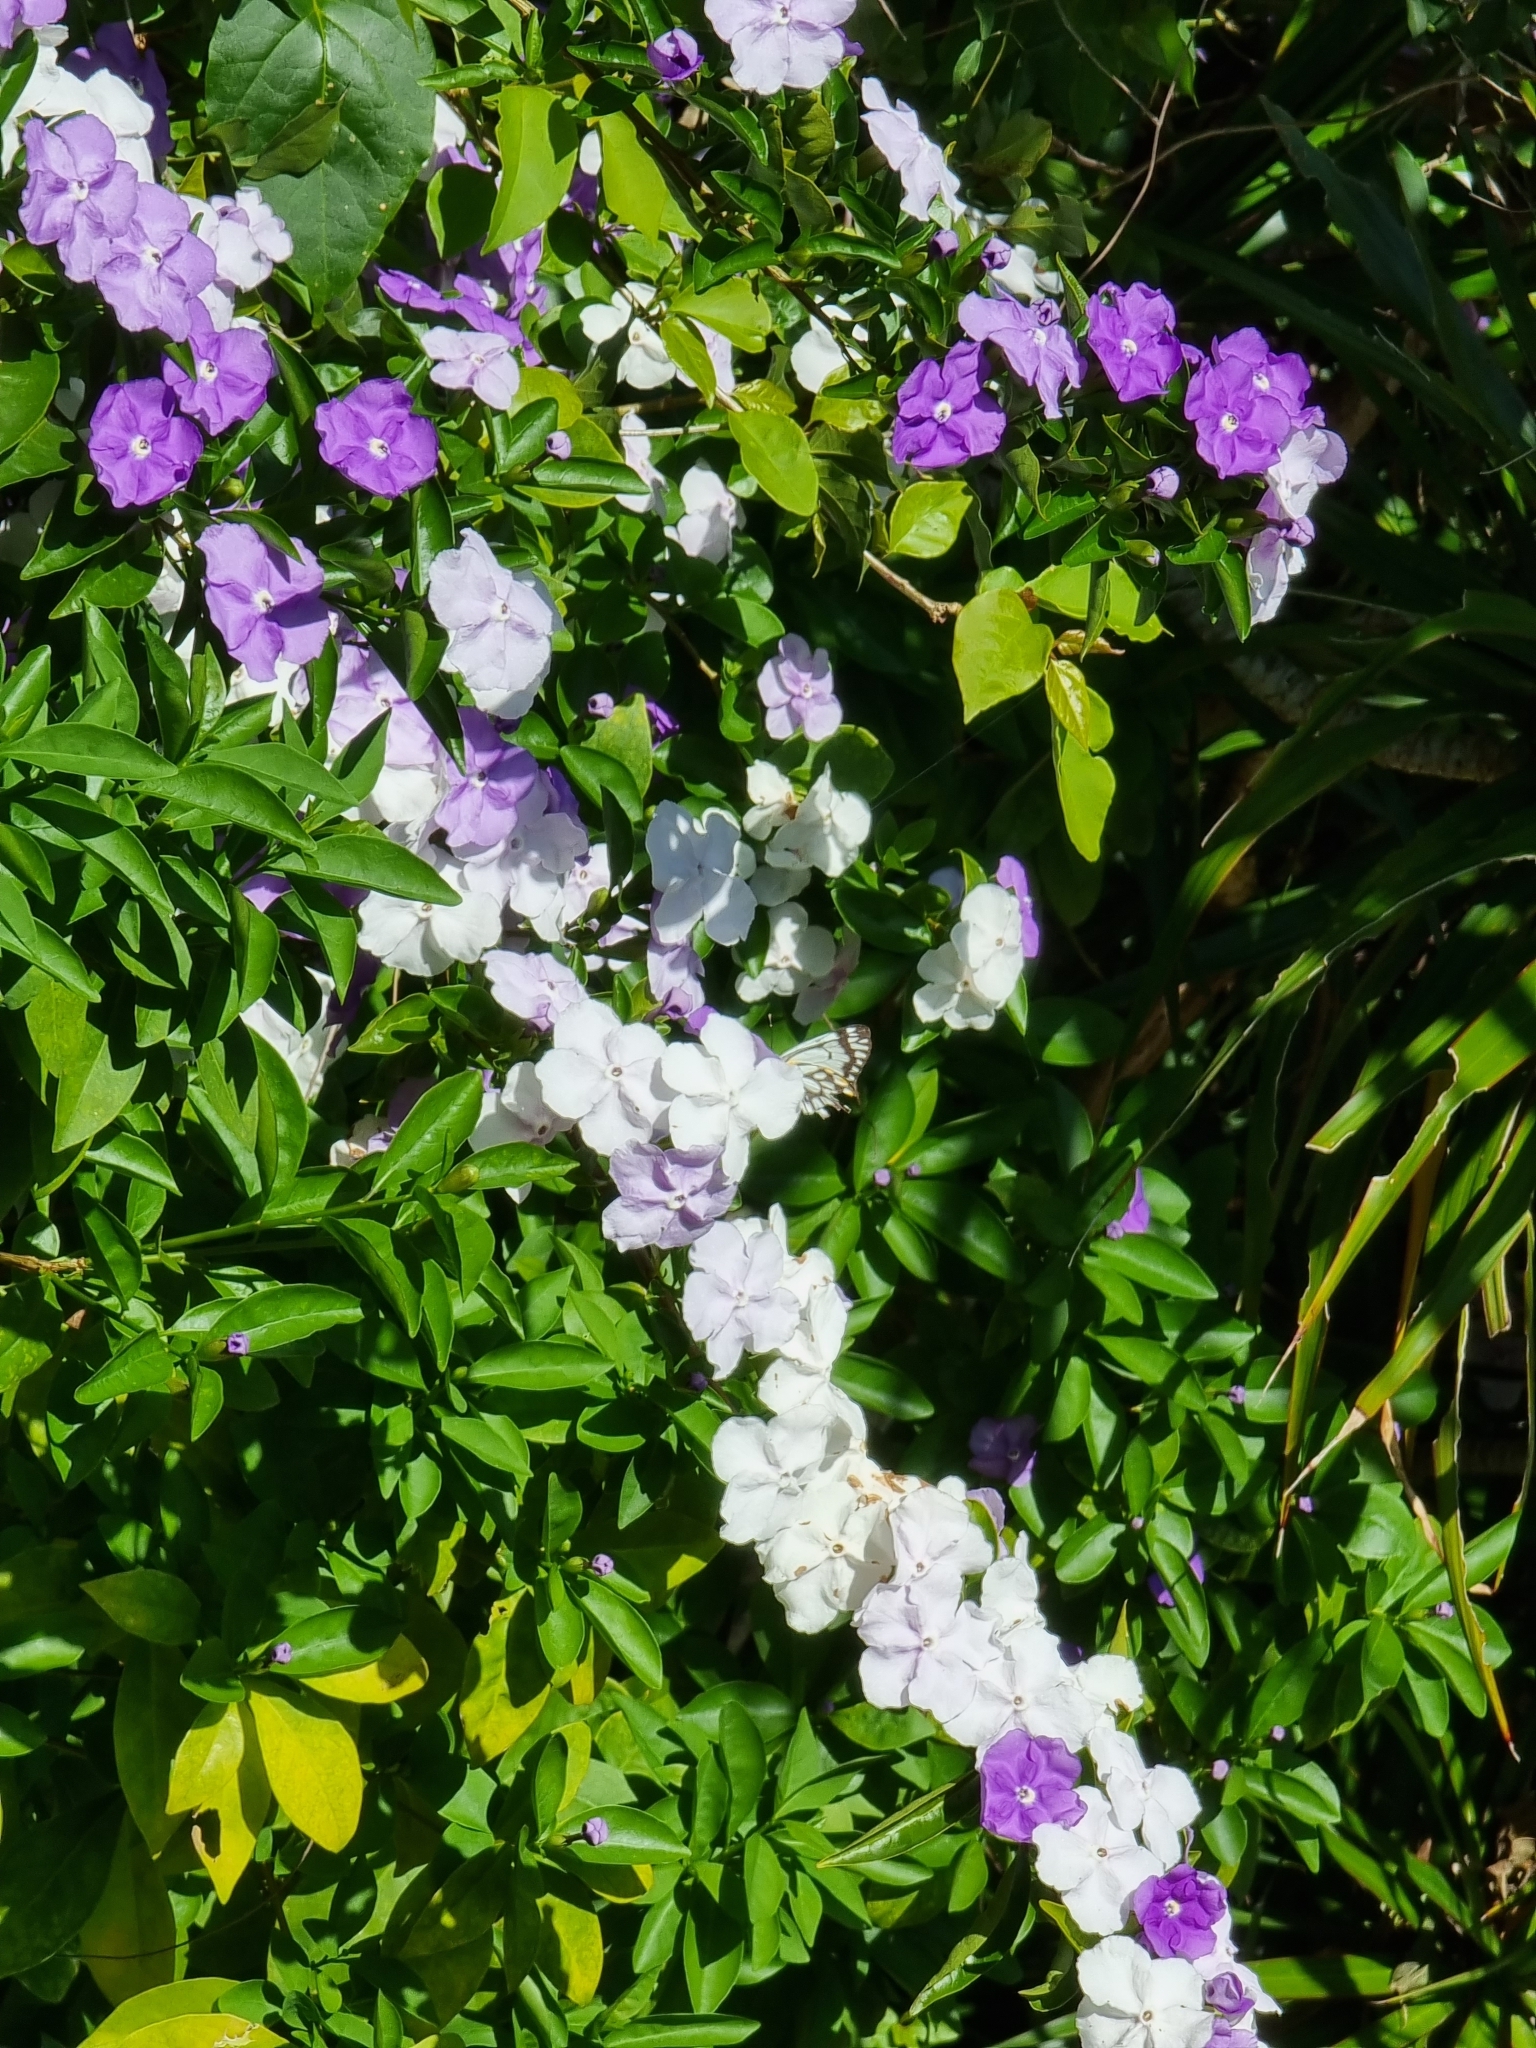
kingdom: Animalia
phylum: Arthropoda
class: Insecta
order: Lepidoptera
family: Pieridae
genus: Belenois
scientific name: Belenois java
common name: Caper white
